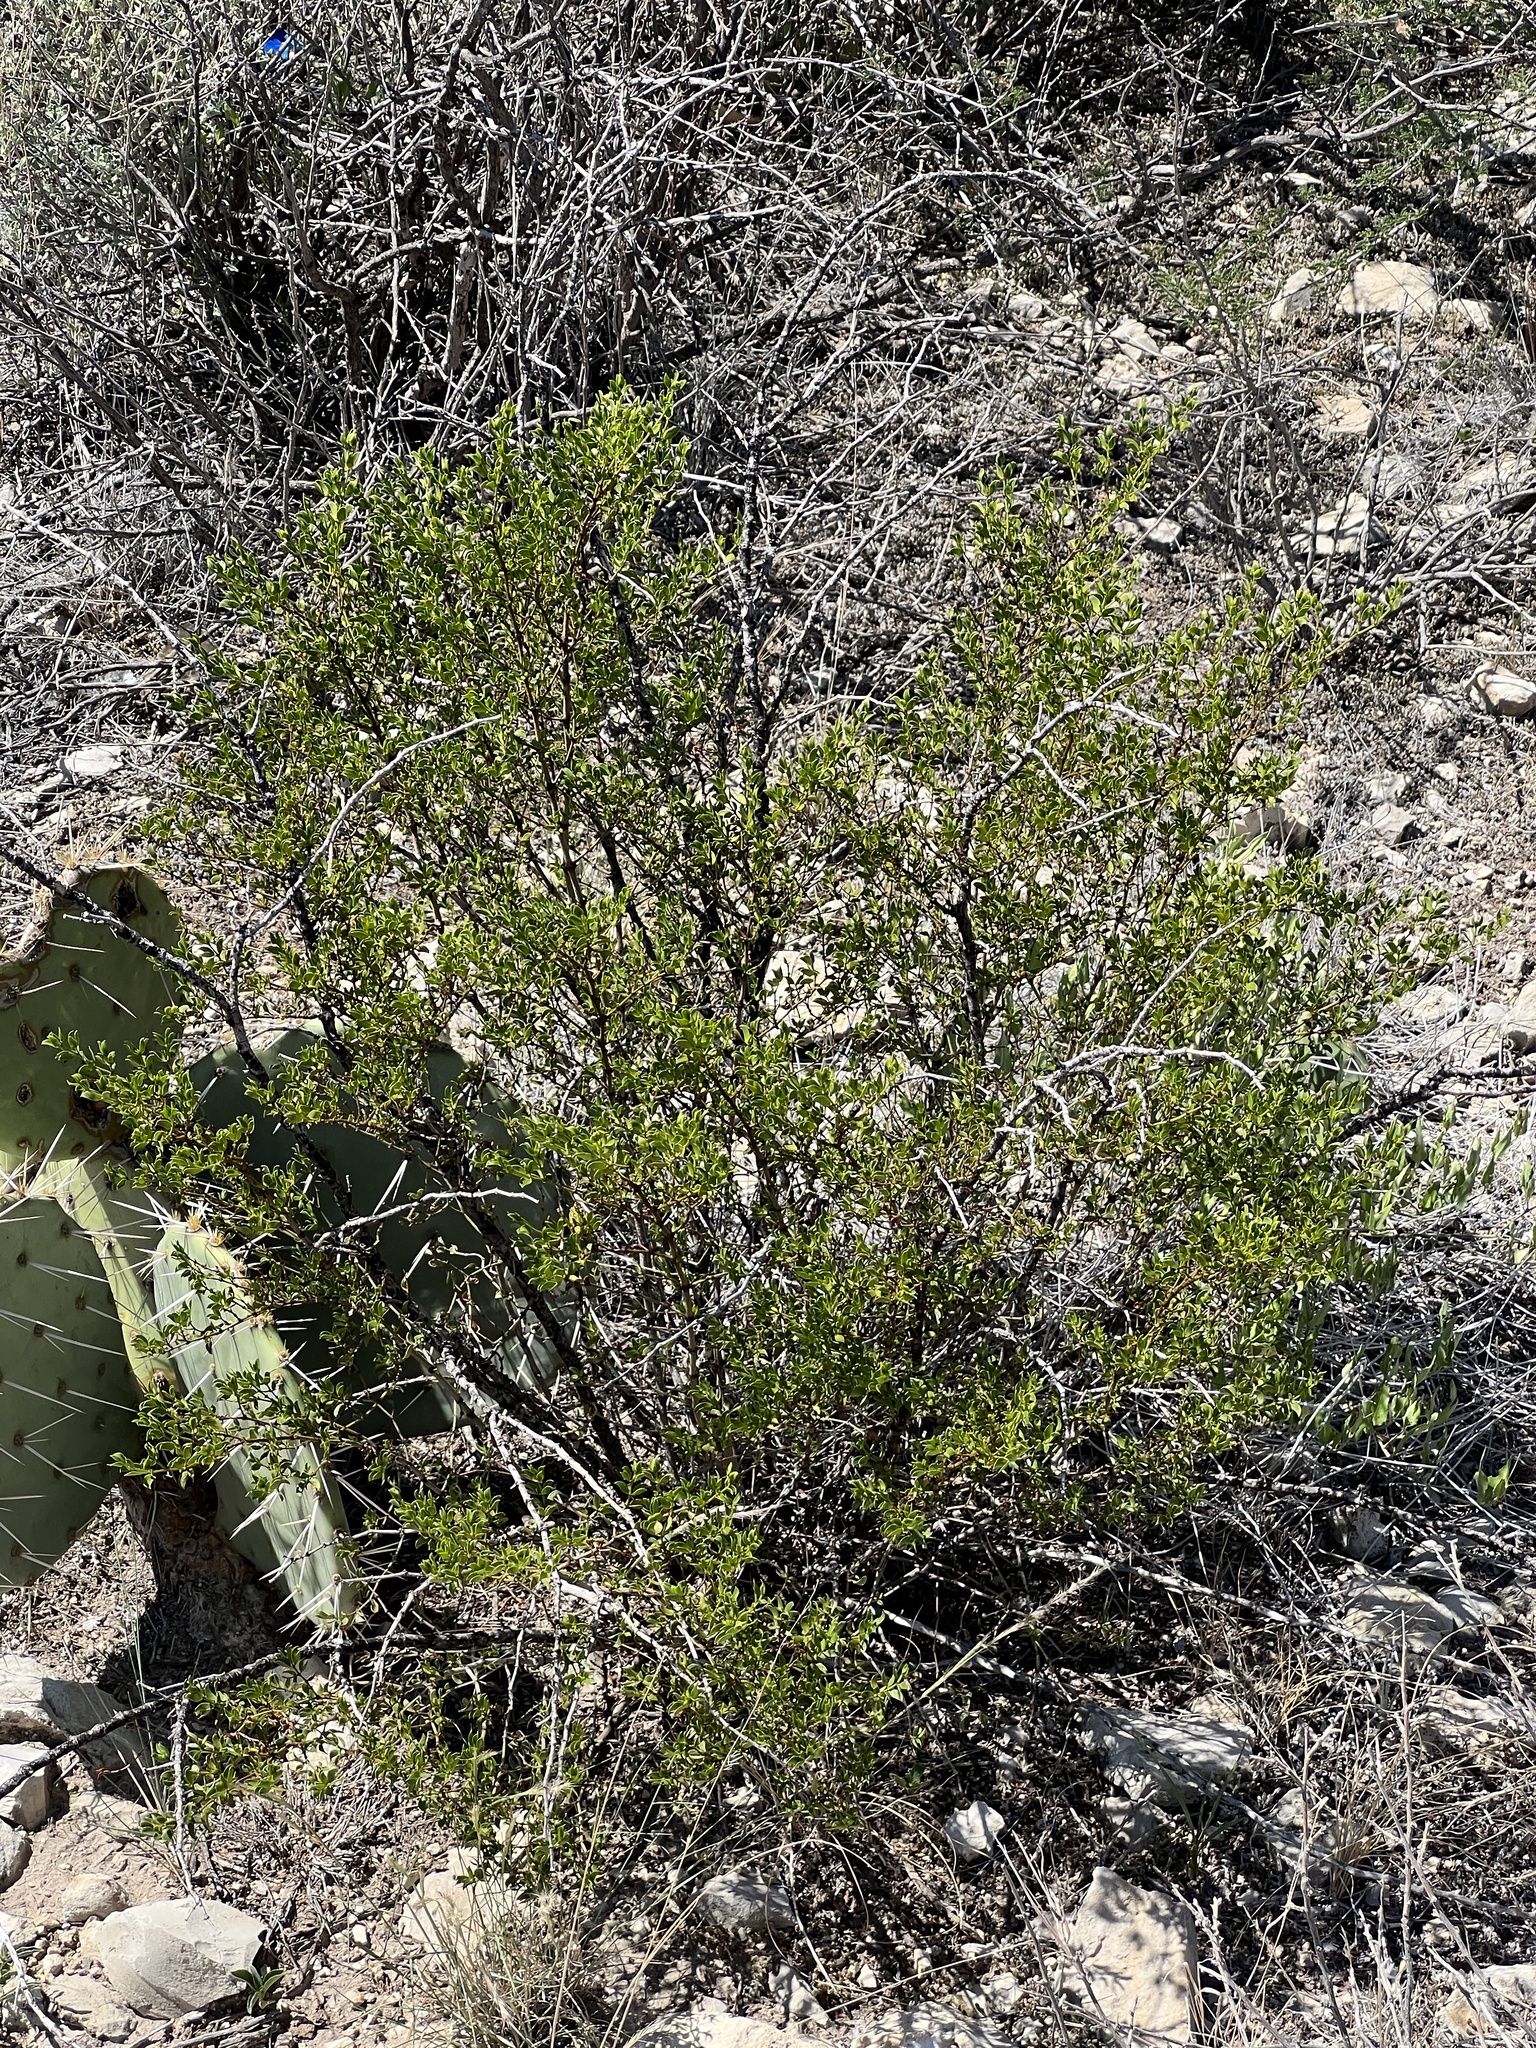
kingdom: Plantae
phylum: Tracheophyta
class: Magnoliopsida
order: Zygophyllales
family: Zygophyllaceae
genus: Larrea
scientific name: Larrea tridentata
